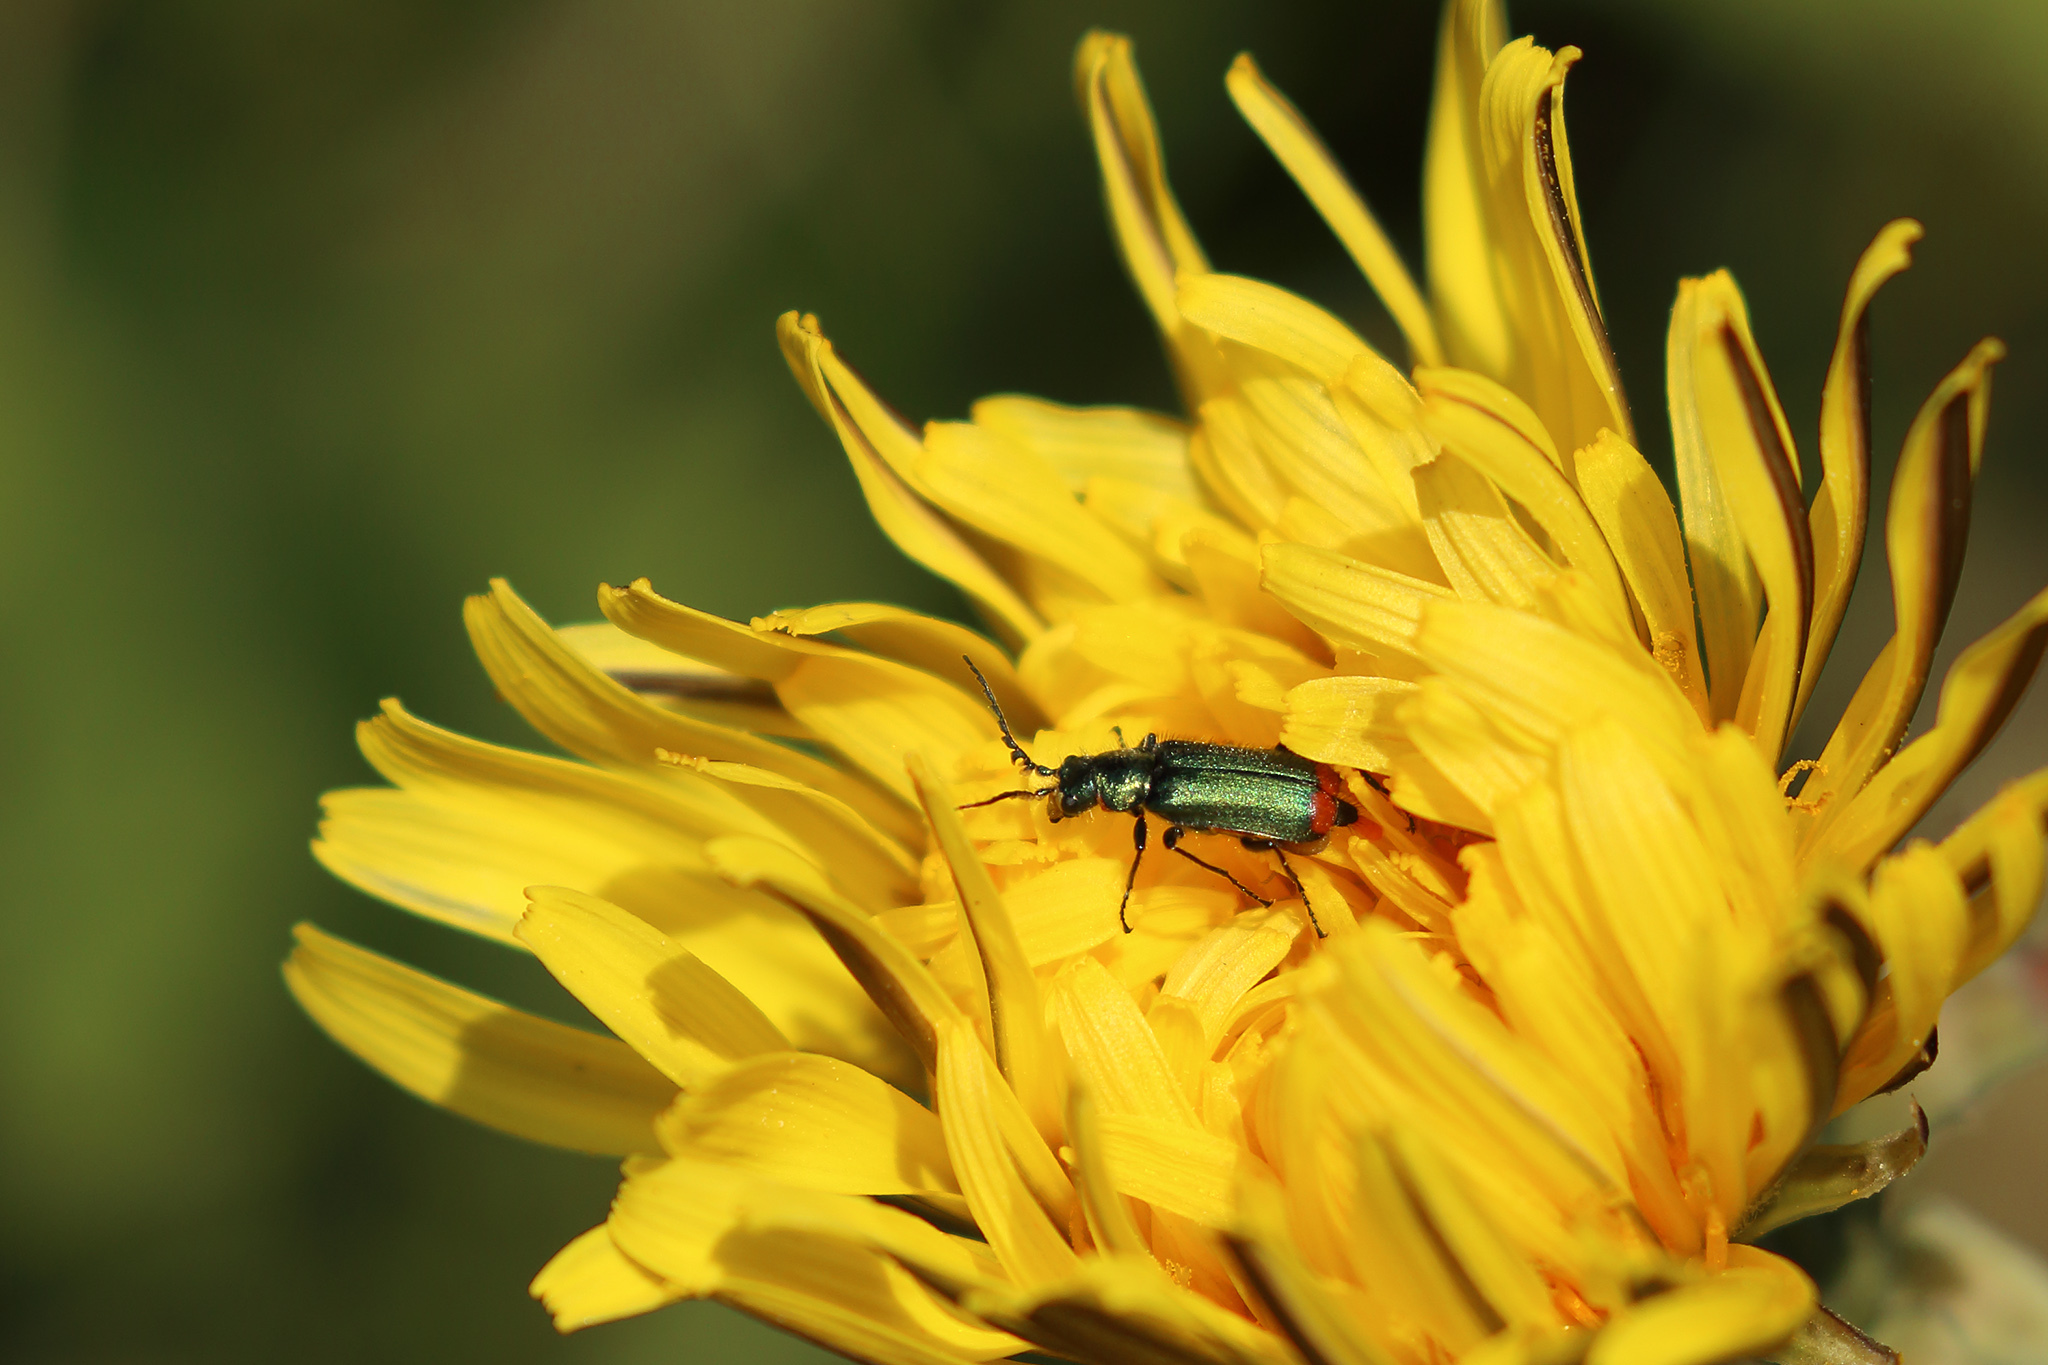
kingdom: Animalia
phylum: Arthropoda
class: Insecta
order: Coleoptera
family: Melyridae
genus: Malachius
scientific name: Malachius bipustulatus
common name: Malachite beetle
